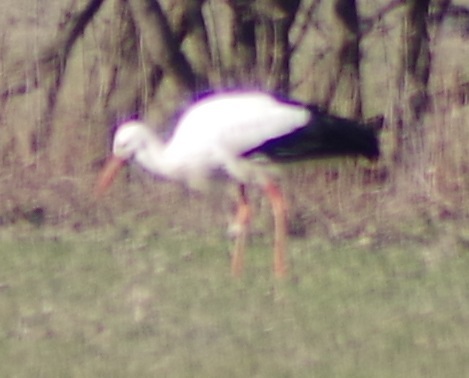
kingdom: Animalia
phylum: Chordata
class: Aves
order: Ciconiiformes
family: Ciconiidae
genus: Ciconia
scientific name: Ciconia ciconia
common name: White stork
